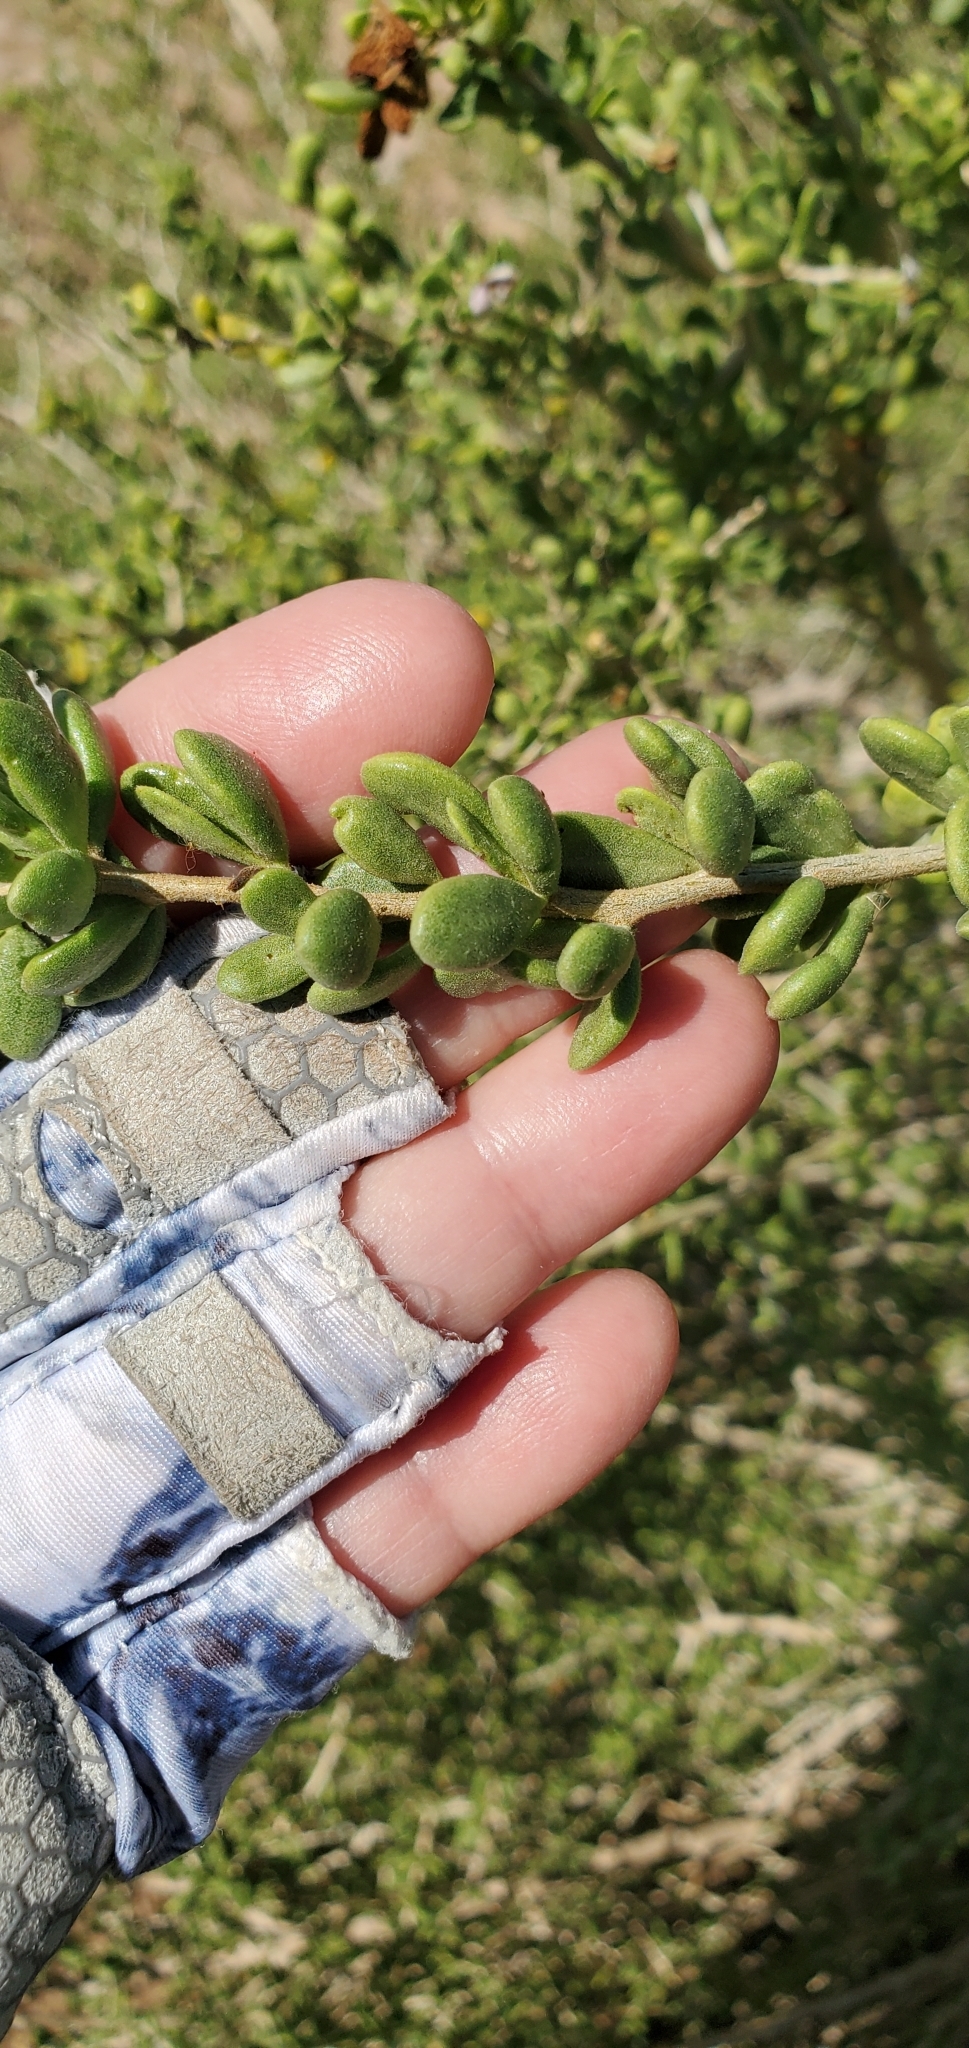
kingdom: Plantae
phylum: Tracheophyta
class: Magnoliopsida
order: Solanales
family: Solanaceae
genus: Lycium
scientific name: Lycium brevipes
